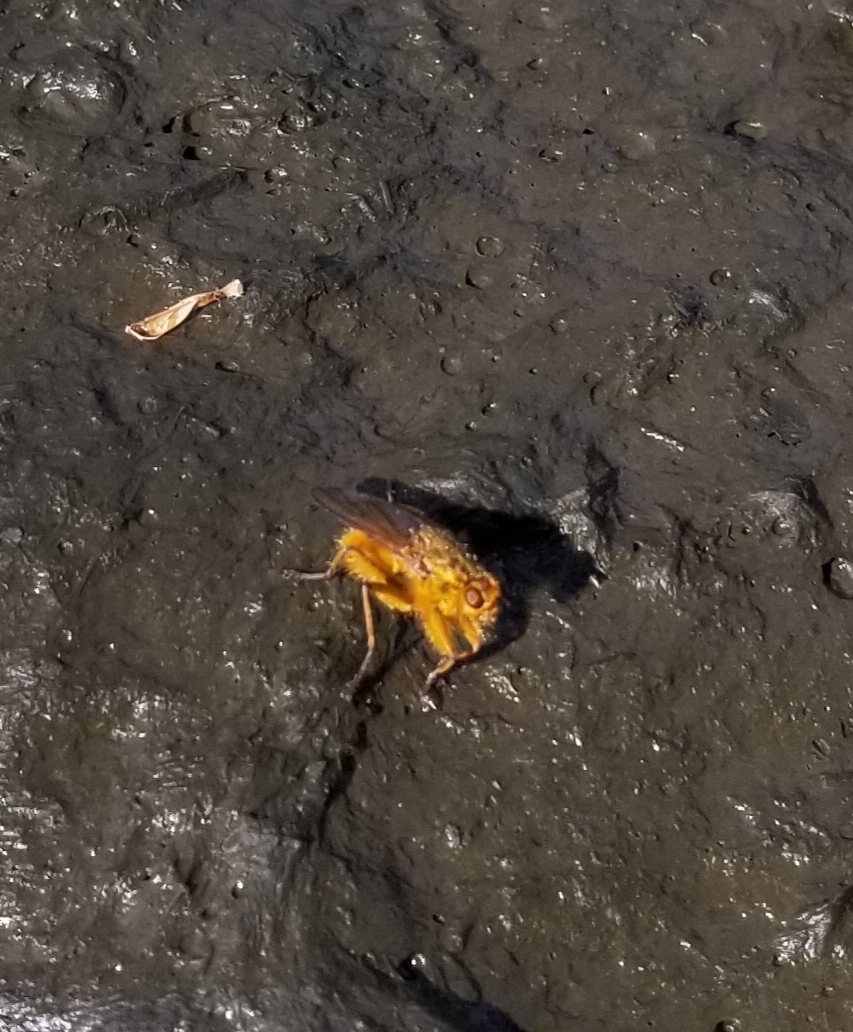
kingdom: Animalia
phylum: Arthropoda
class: Insecta
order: Diptera
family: Scathophagidae
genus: Scathophaga
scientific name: Scathophaga stercoraria
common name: Yellow dung fly
